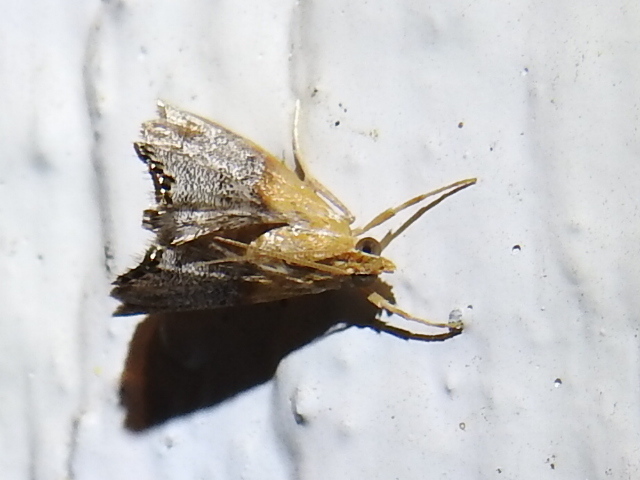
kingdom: Animalia
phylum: Arthropoda
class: Insecta
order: Lepidoptera
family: Crambidae
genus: Chalcoela
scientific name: Chalcoela iphitalis
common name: Sooty-winged chalcoela moth
